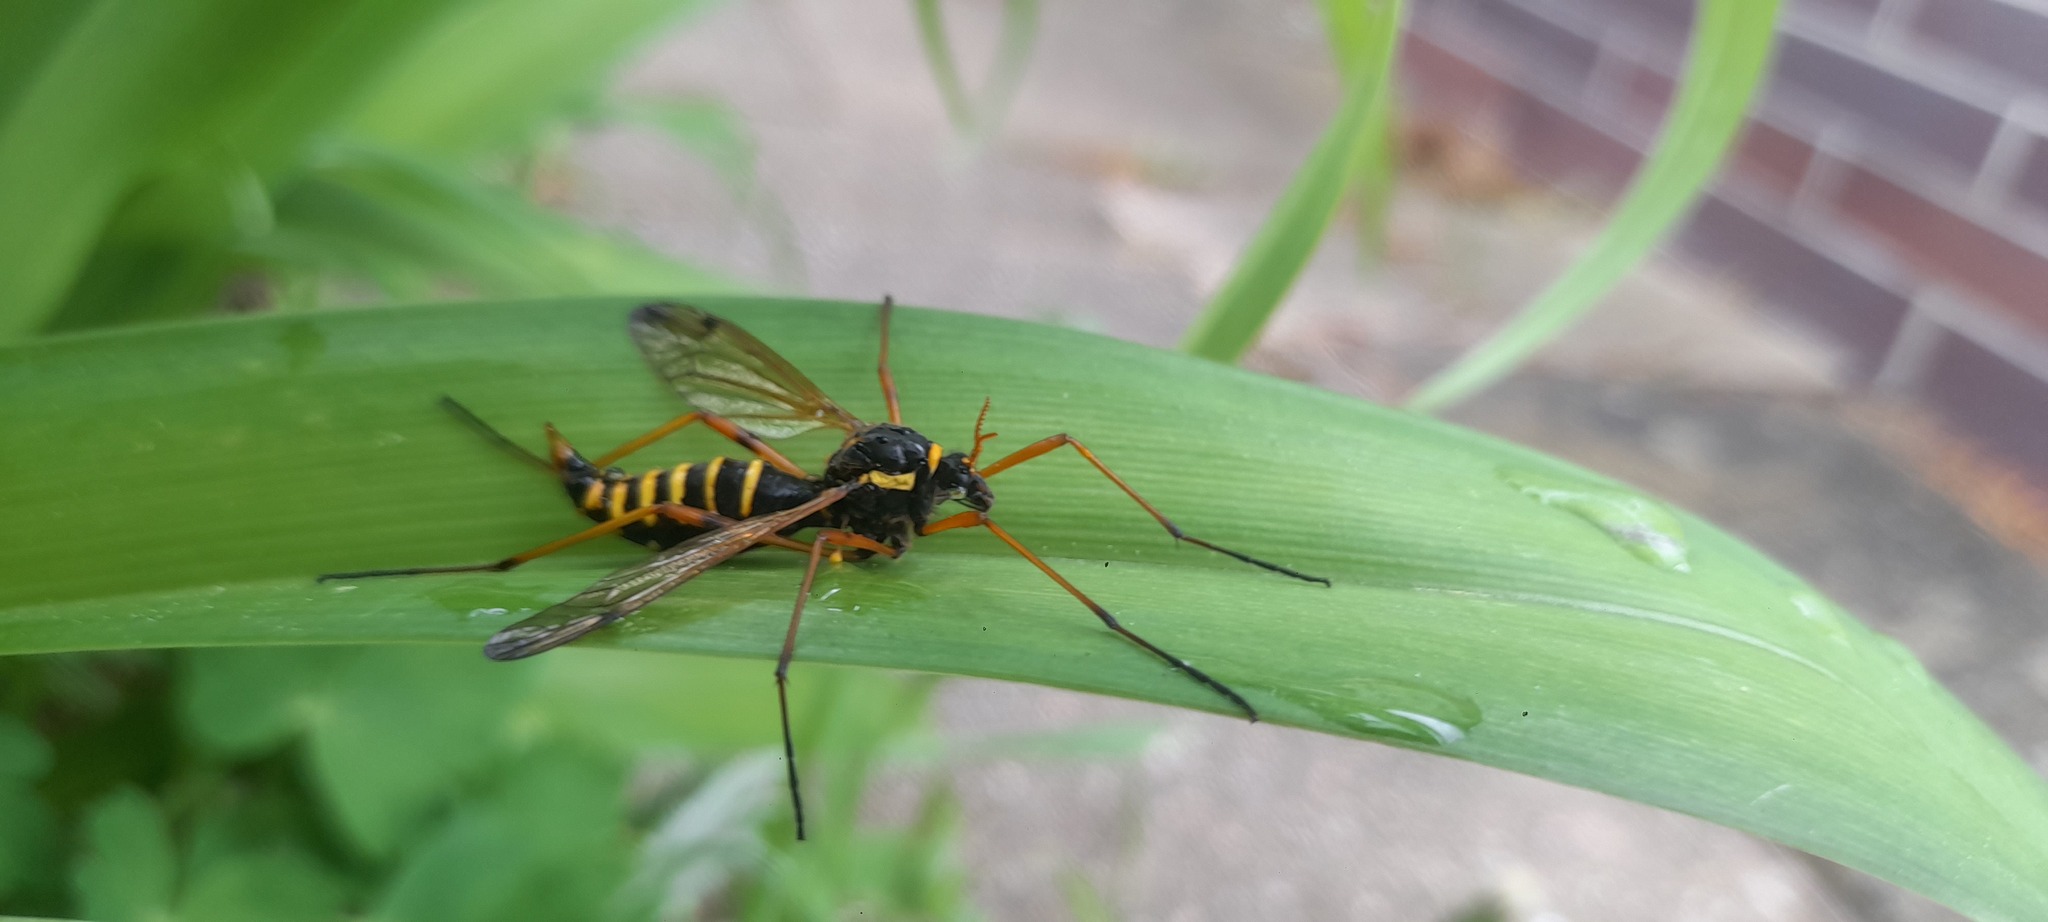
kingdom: Animalia
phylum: Arthropoda
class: Insecta
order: Diptera
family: Tipulidae
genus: Ctenophora
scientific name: Ctenophora flaveolata
